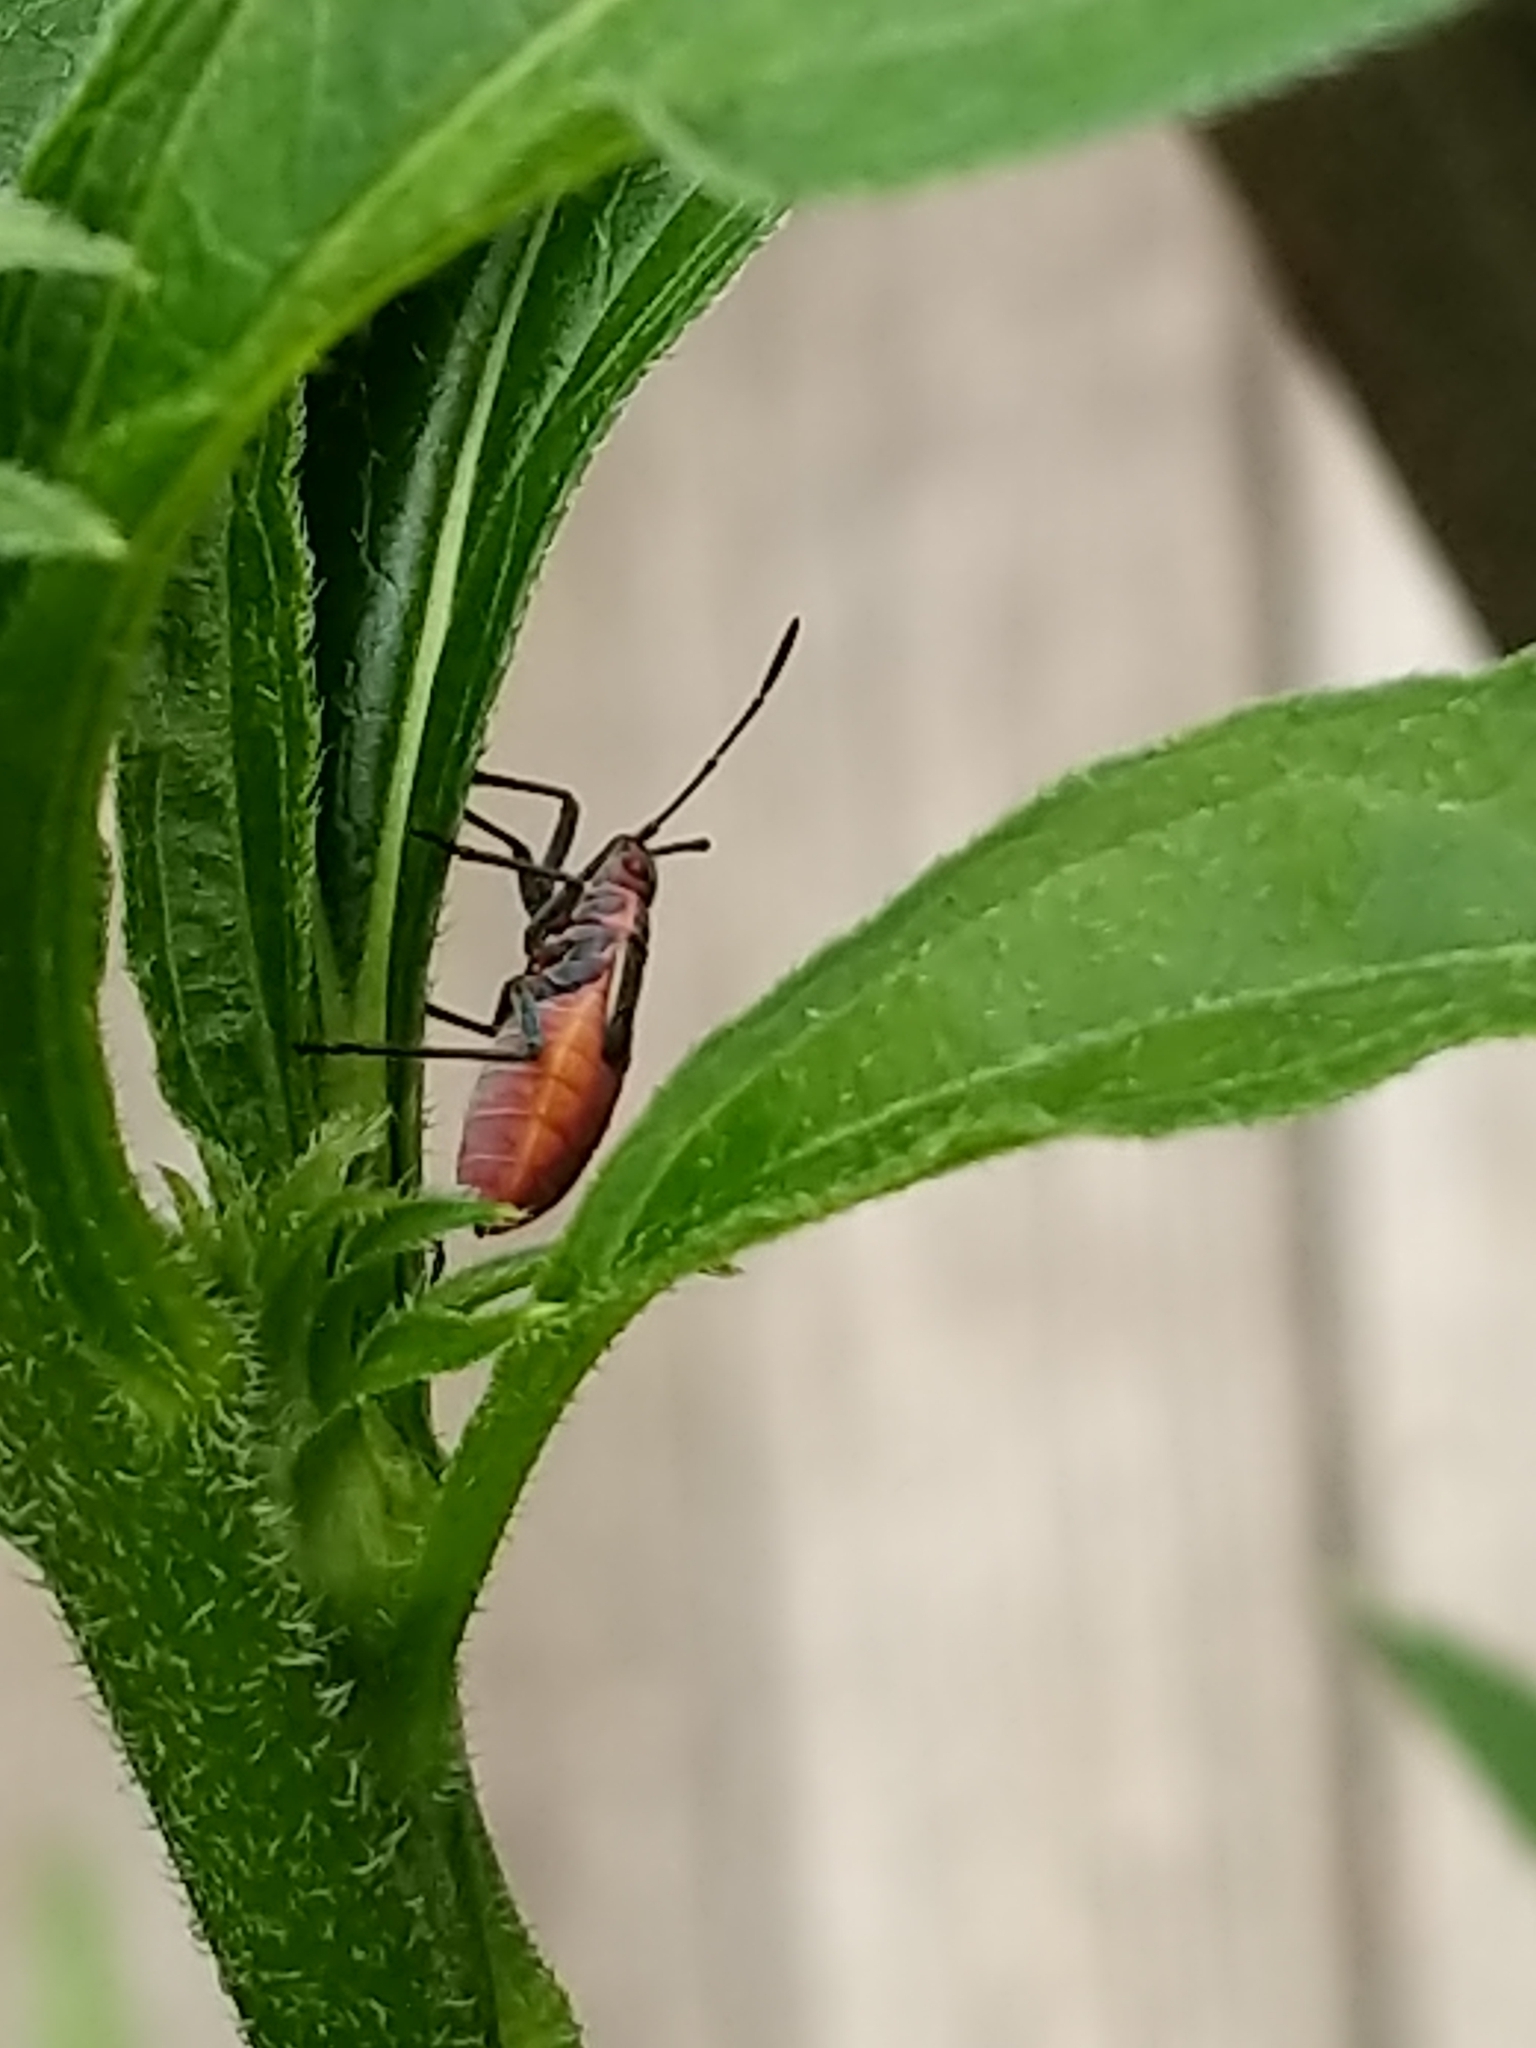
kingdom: Animalia
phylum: Arthropoda
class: Insecta
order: Hemiptera
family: Rhopalidae
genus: Boisea
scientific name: Boisea trivittata
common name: Boxelder bug
